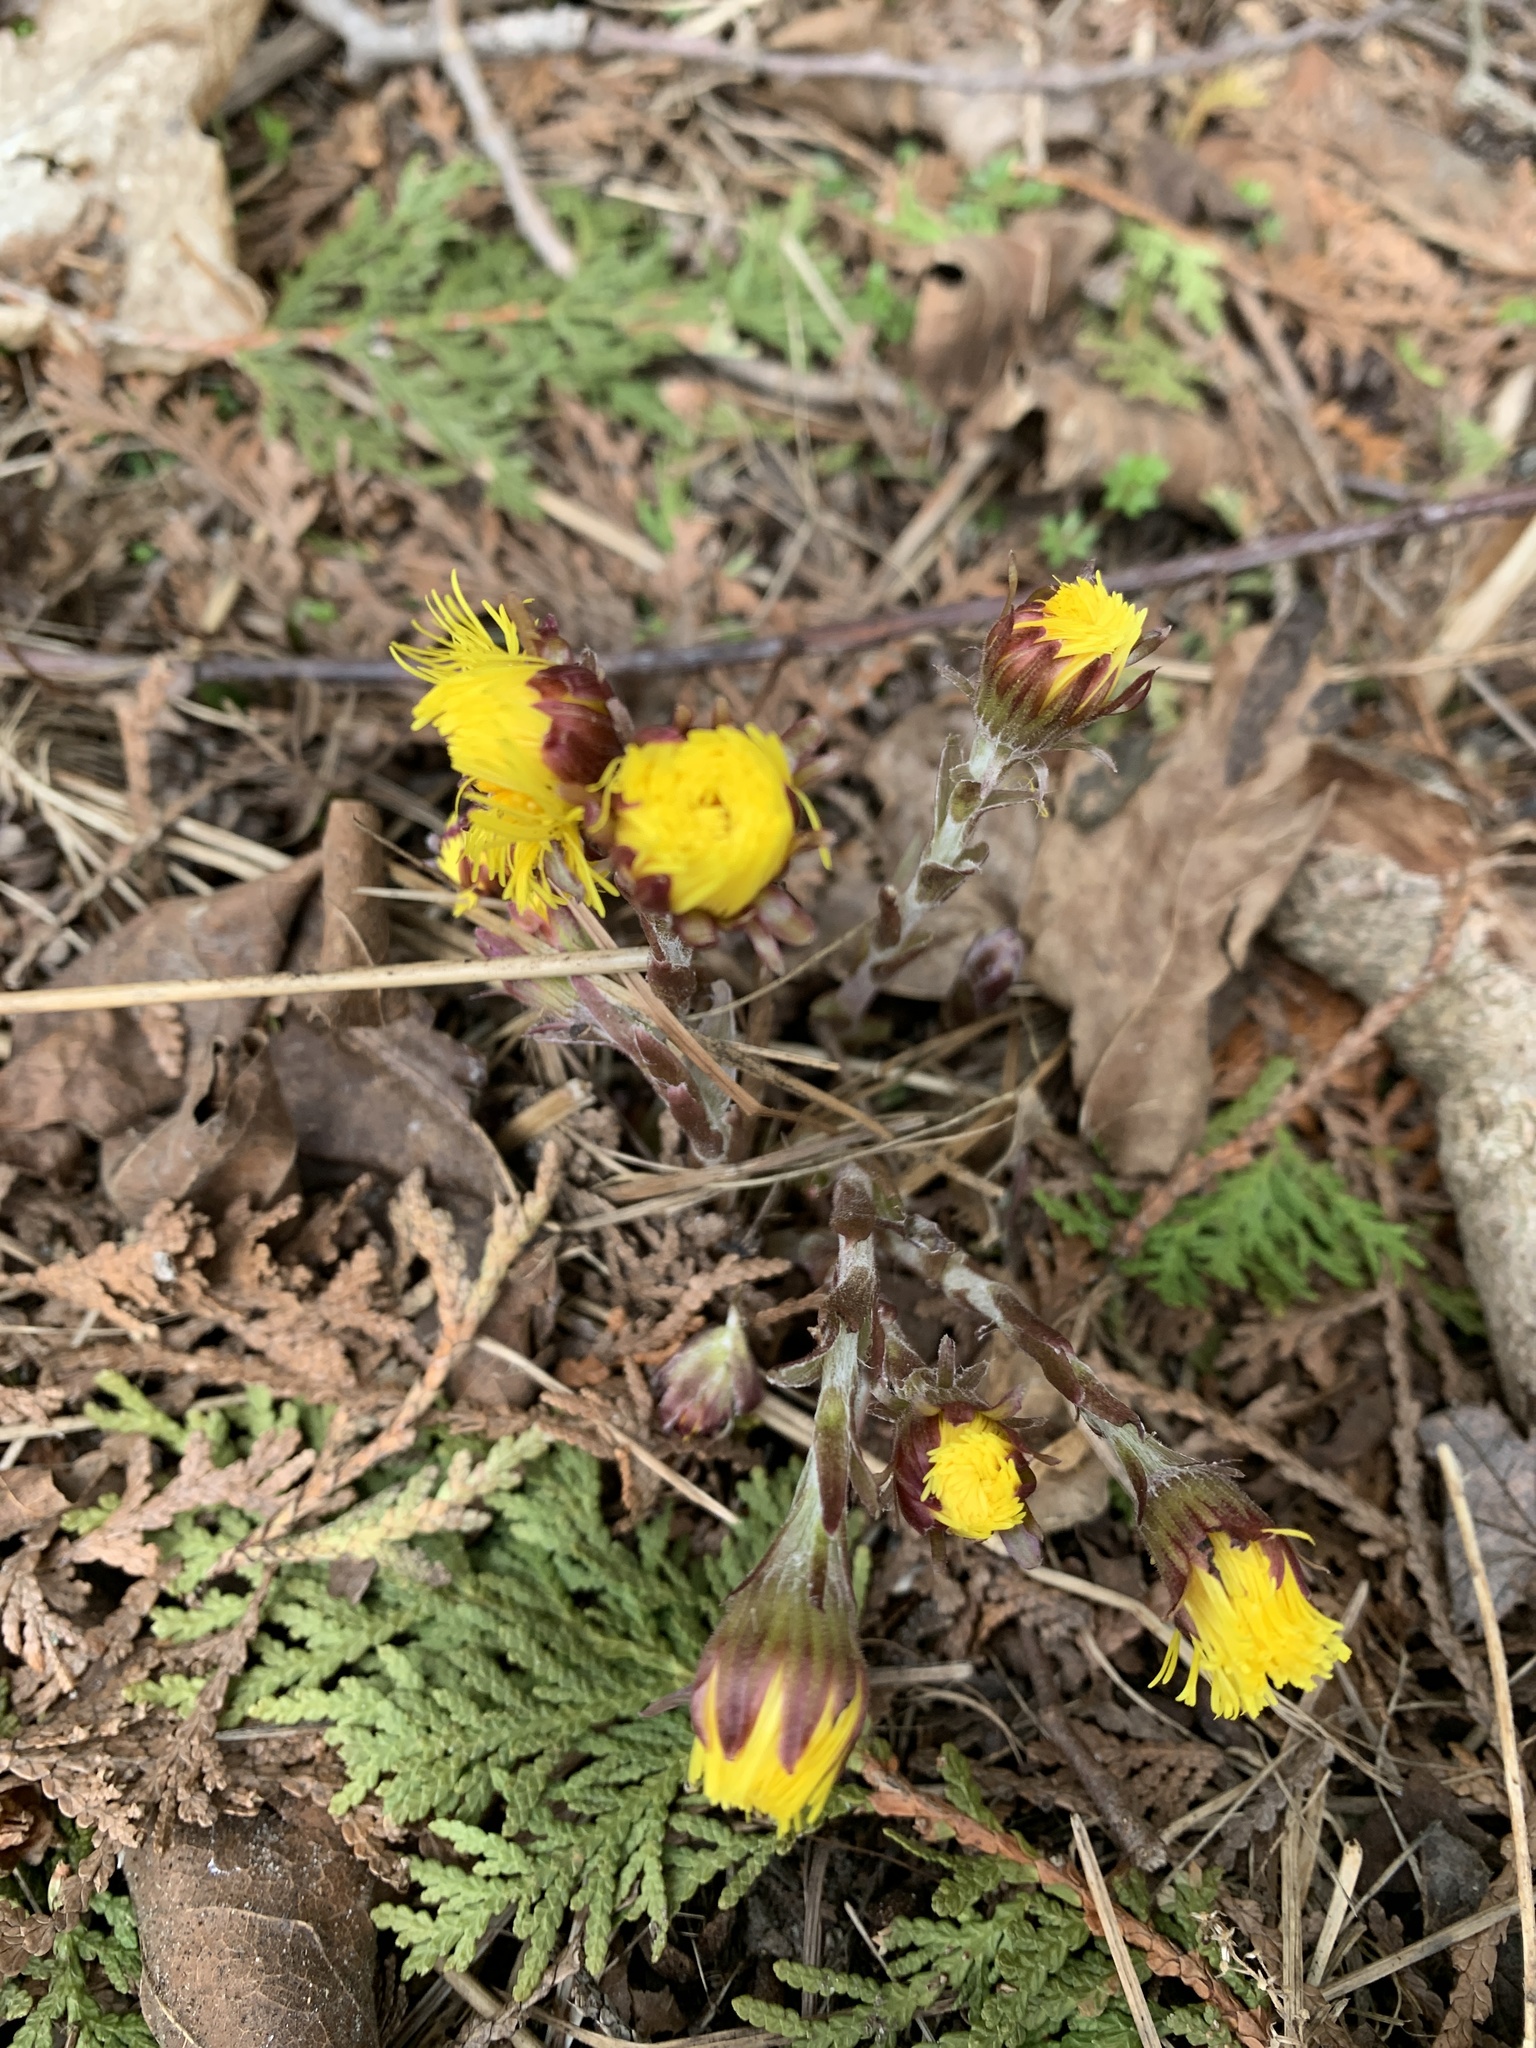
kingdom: Plantae
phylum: Tracheophyta
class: Magnoliopsida
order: Asterales
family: Asteraceae
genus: Tussilago
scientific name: Tussilago farfara
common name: Coltsfoot
